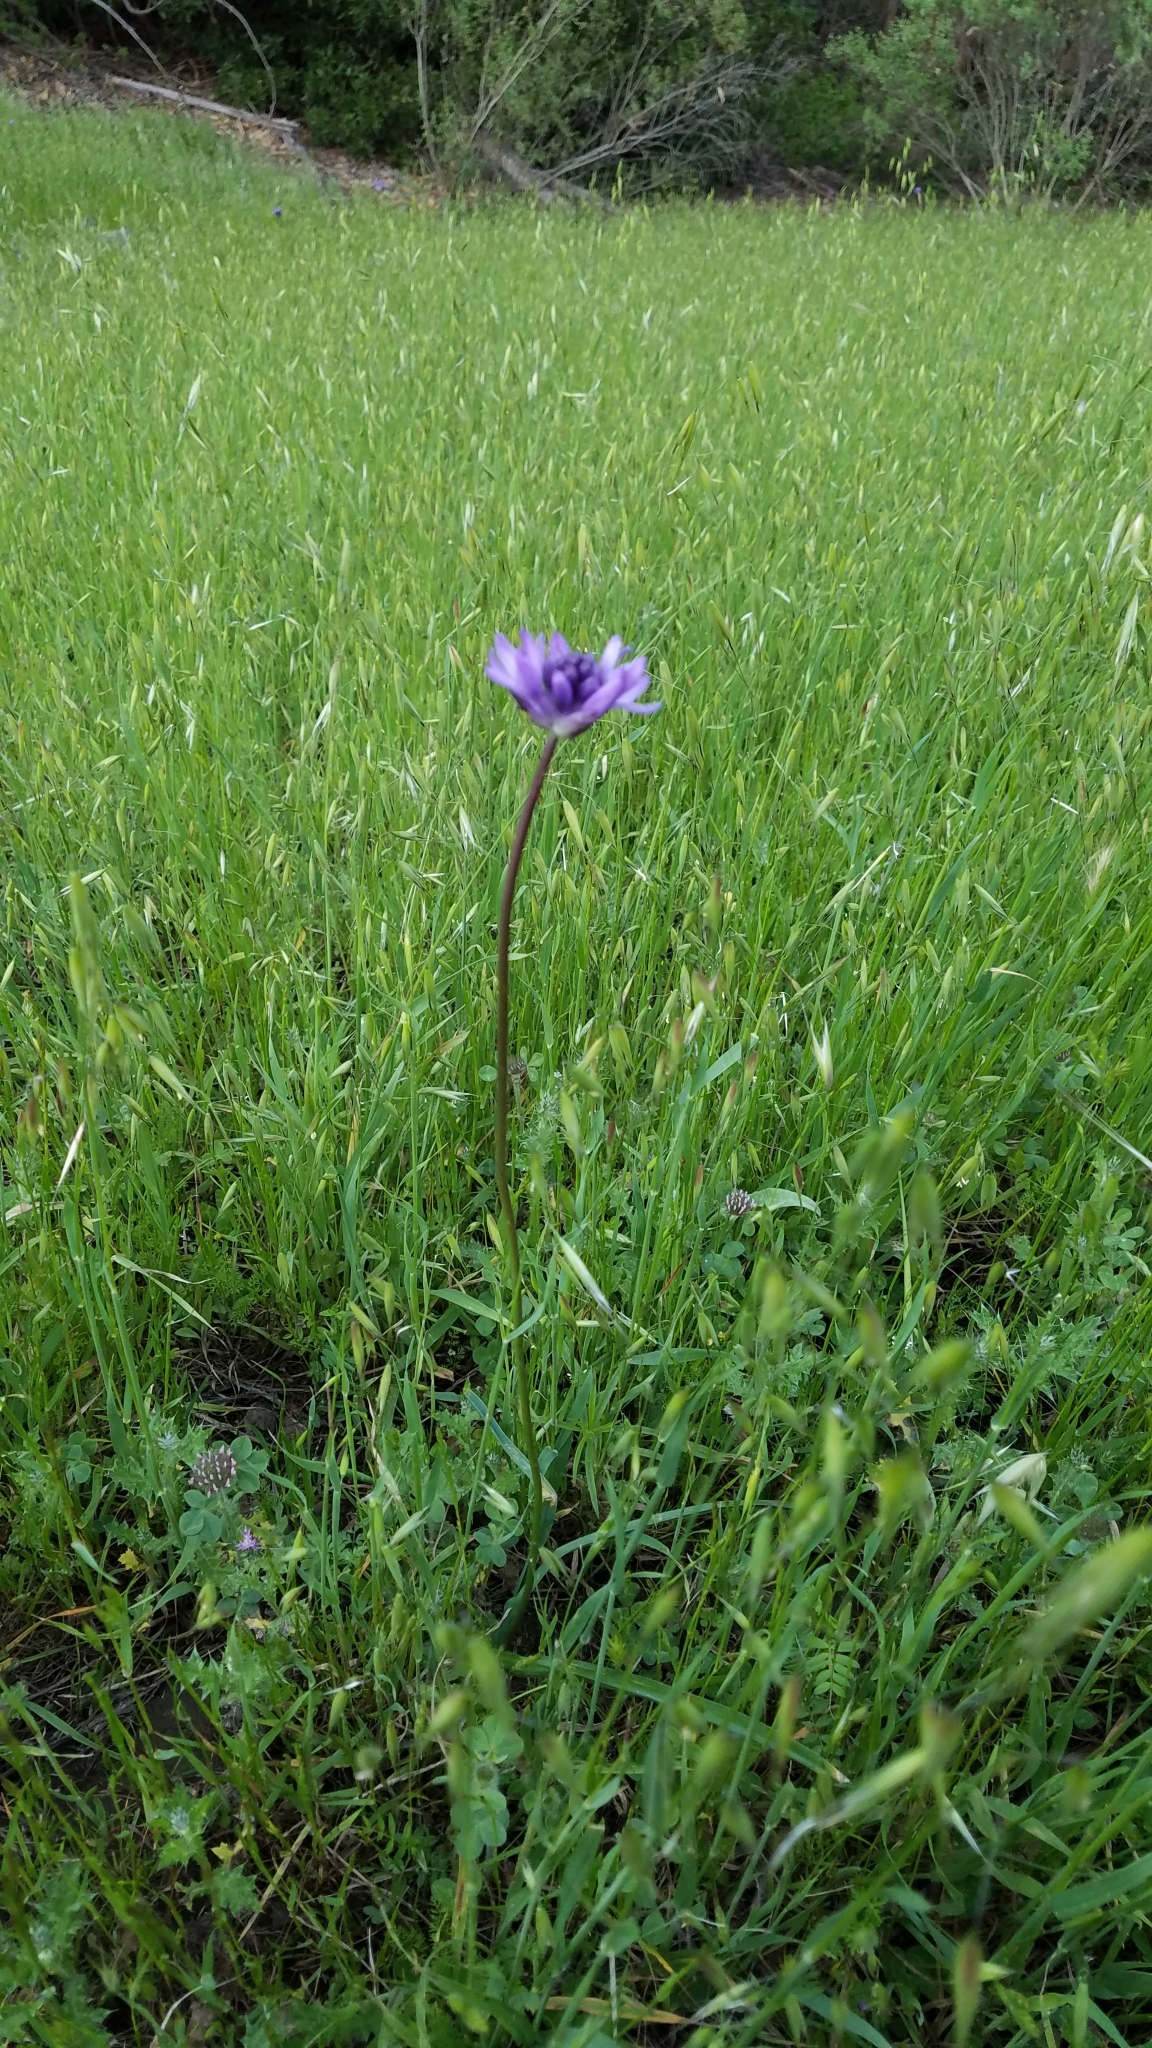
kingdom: Plantae
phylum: Tracheophyta
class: Liliopsida
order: Asparagales
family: Asparagaceae
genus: Dichelostemma
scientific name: Dichelostemma congestum
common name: Fork-tooth ookow
